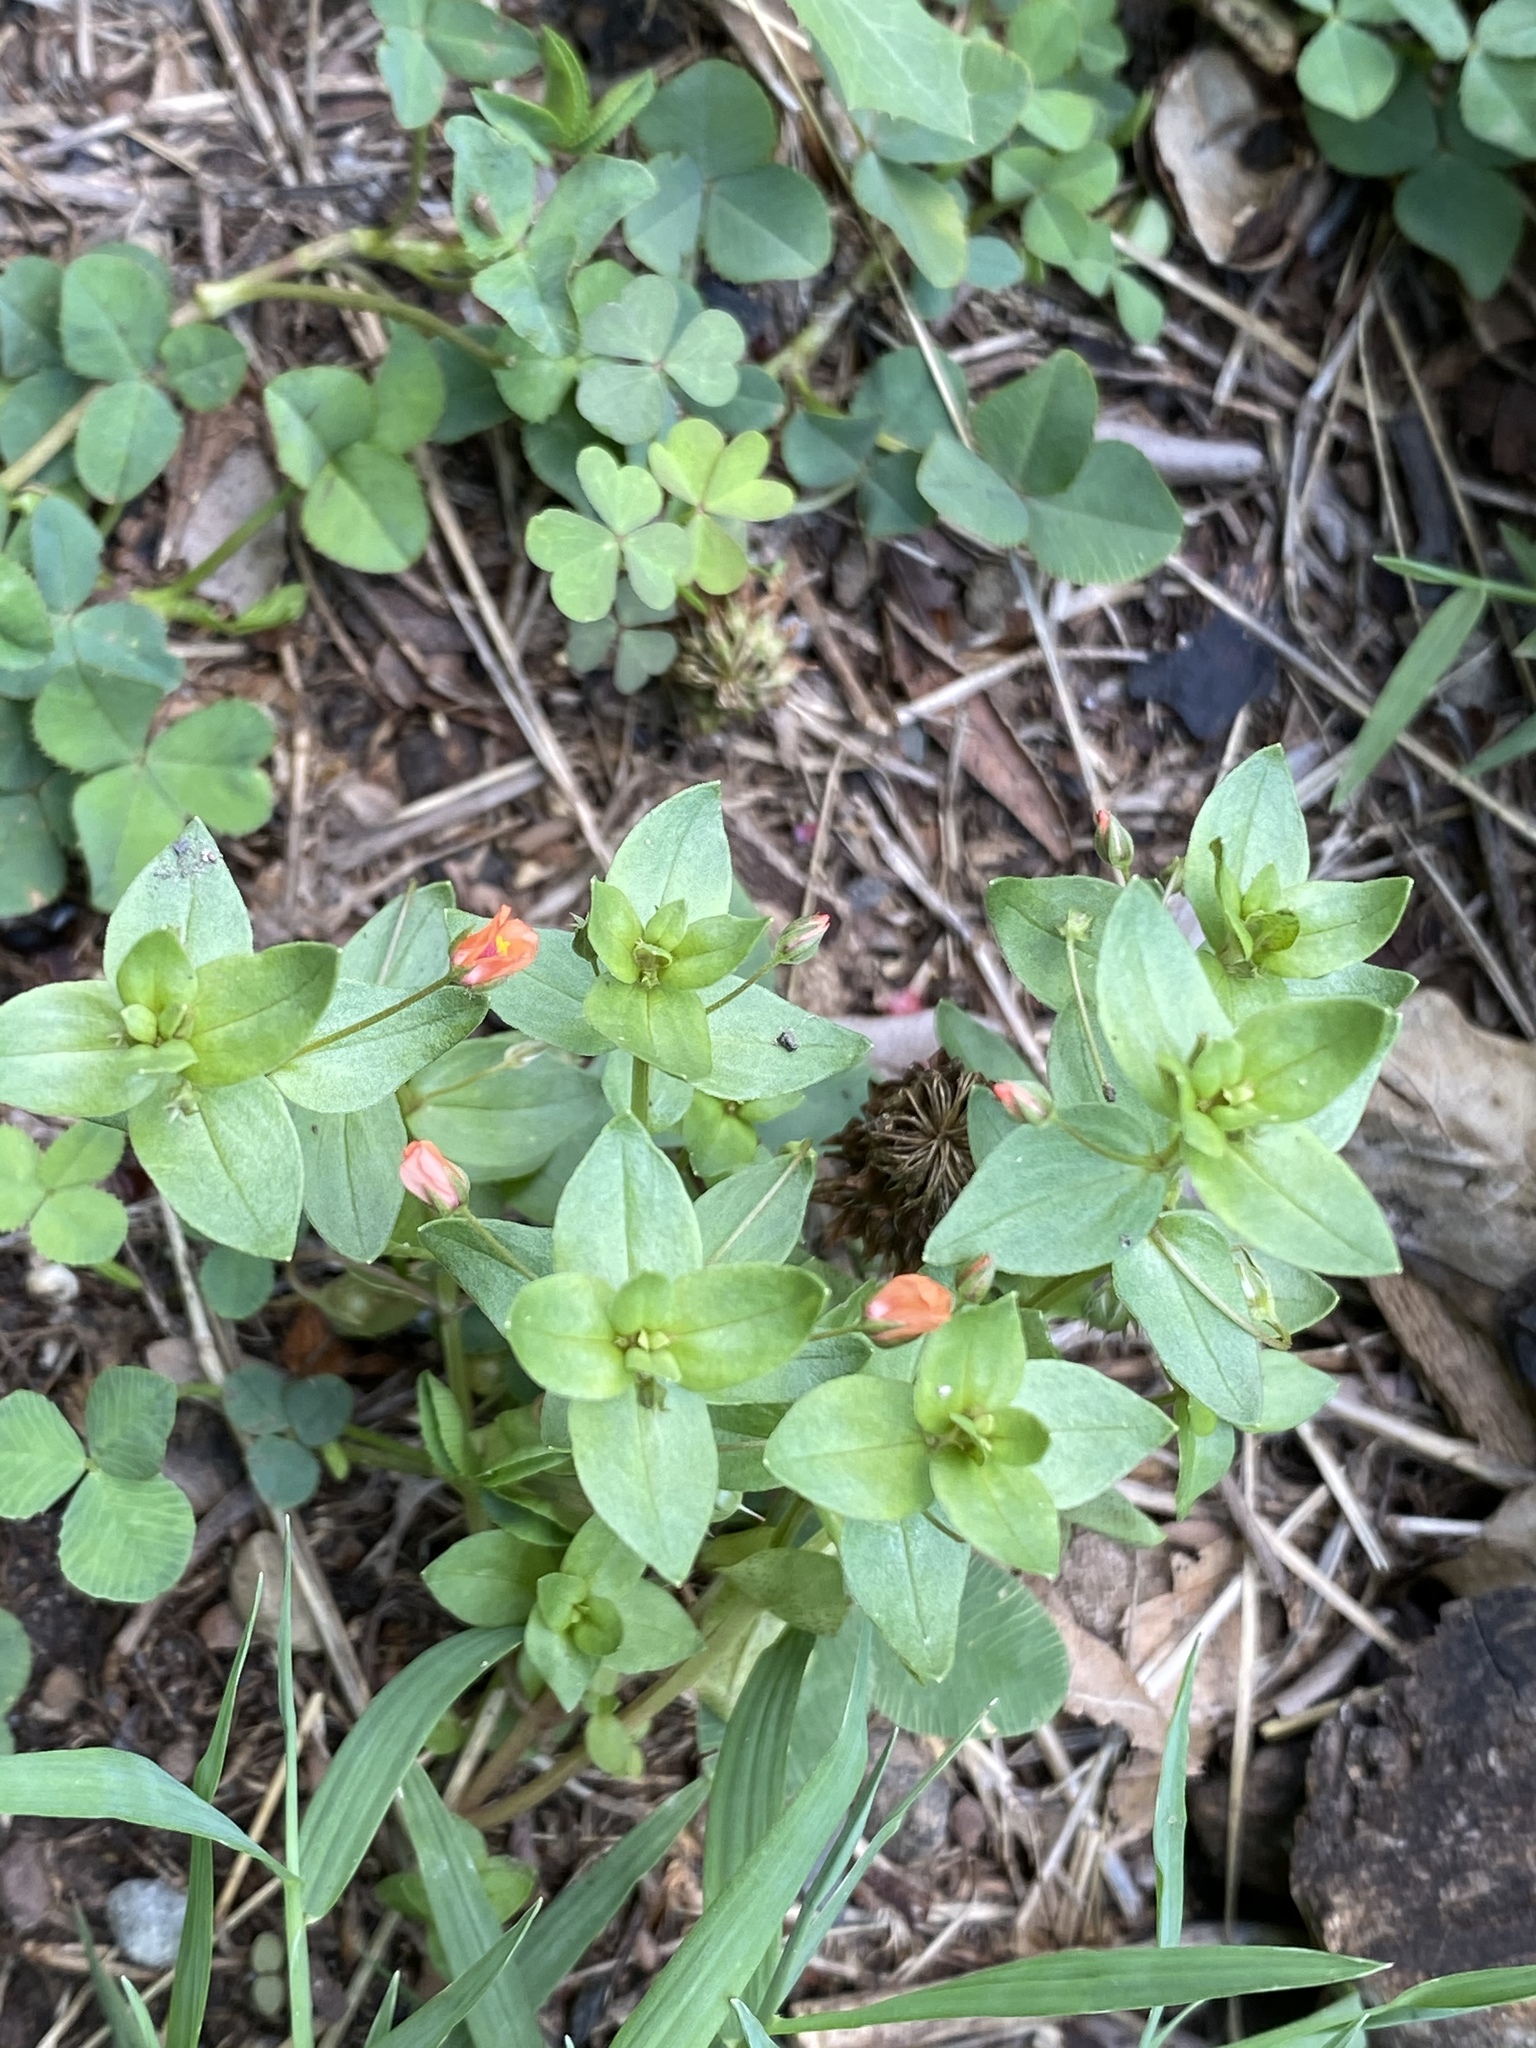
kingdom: Plantae
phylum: Tracheophyta
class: Magnoliopsida
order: Ericales
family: Primulaceae
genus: Lysimachia
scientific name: Lysimachia arvensis
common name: Scarlet pimpernel
